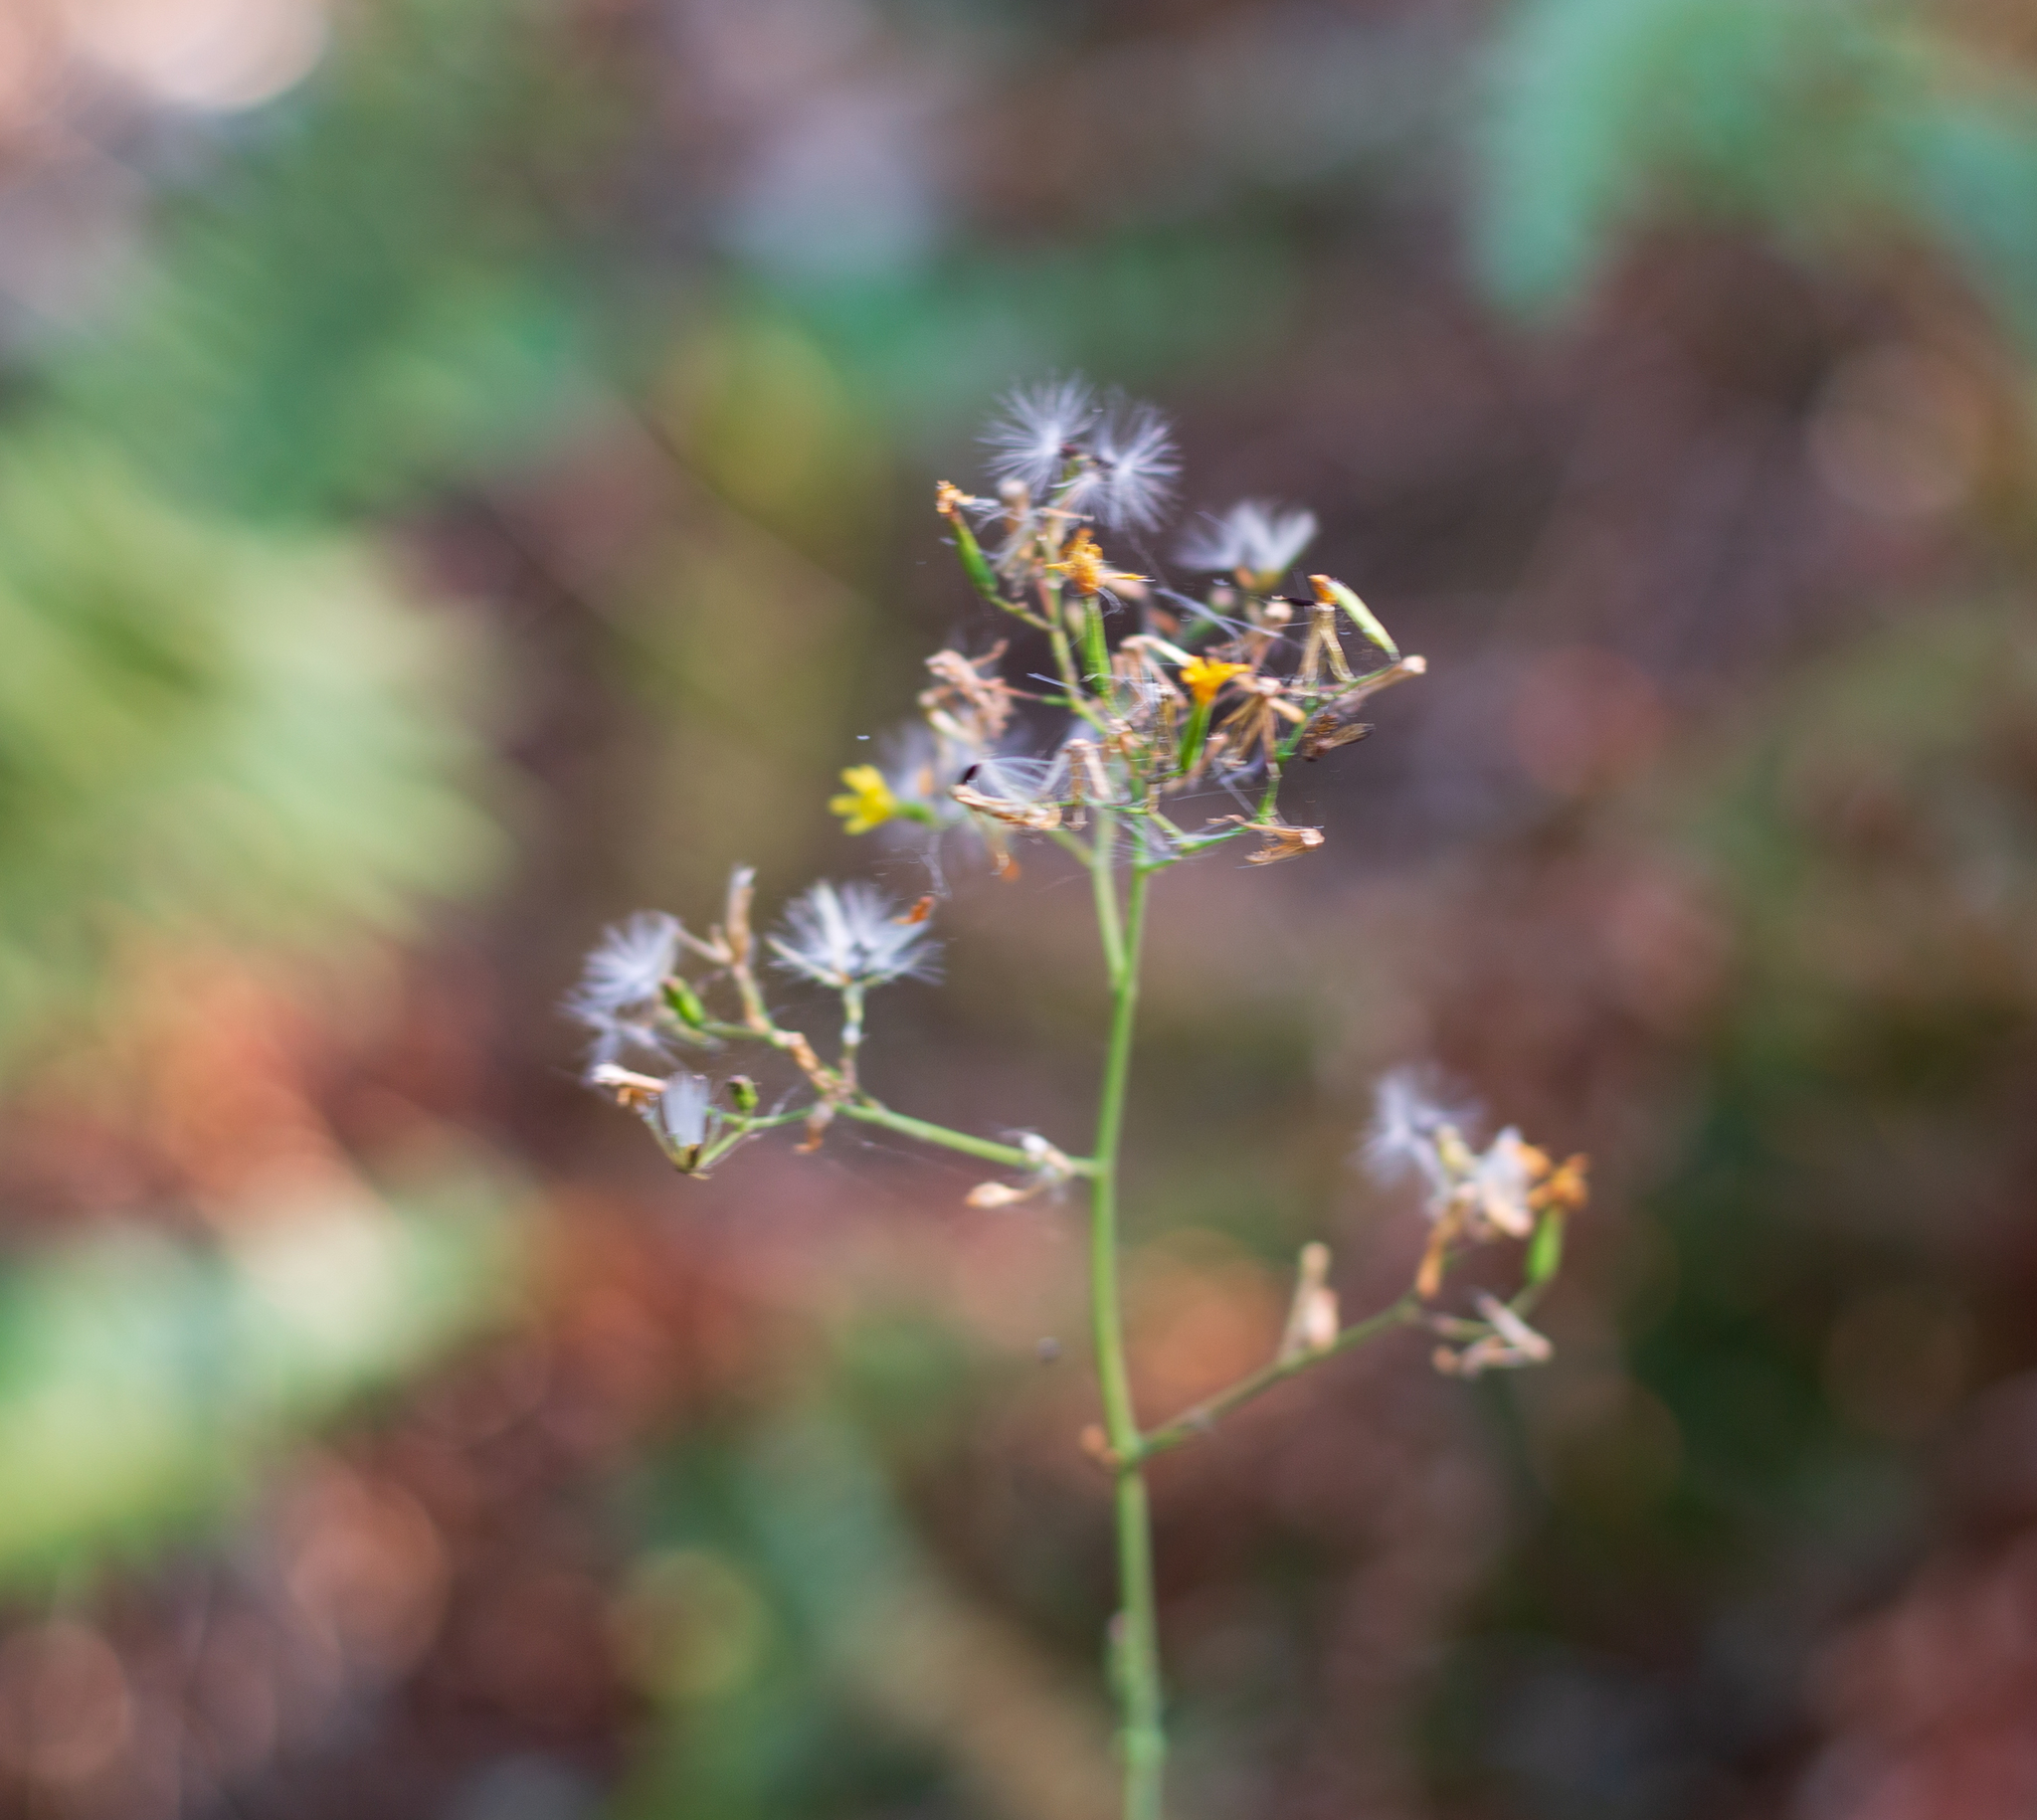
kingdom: Plantae
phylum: Tracheophyta
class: Magnoliopsida
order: Asterales
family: Asteraceae
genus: Mycelis
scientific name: Mycelis muralis
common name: Wall lettuce
